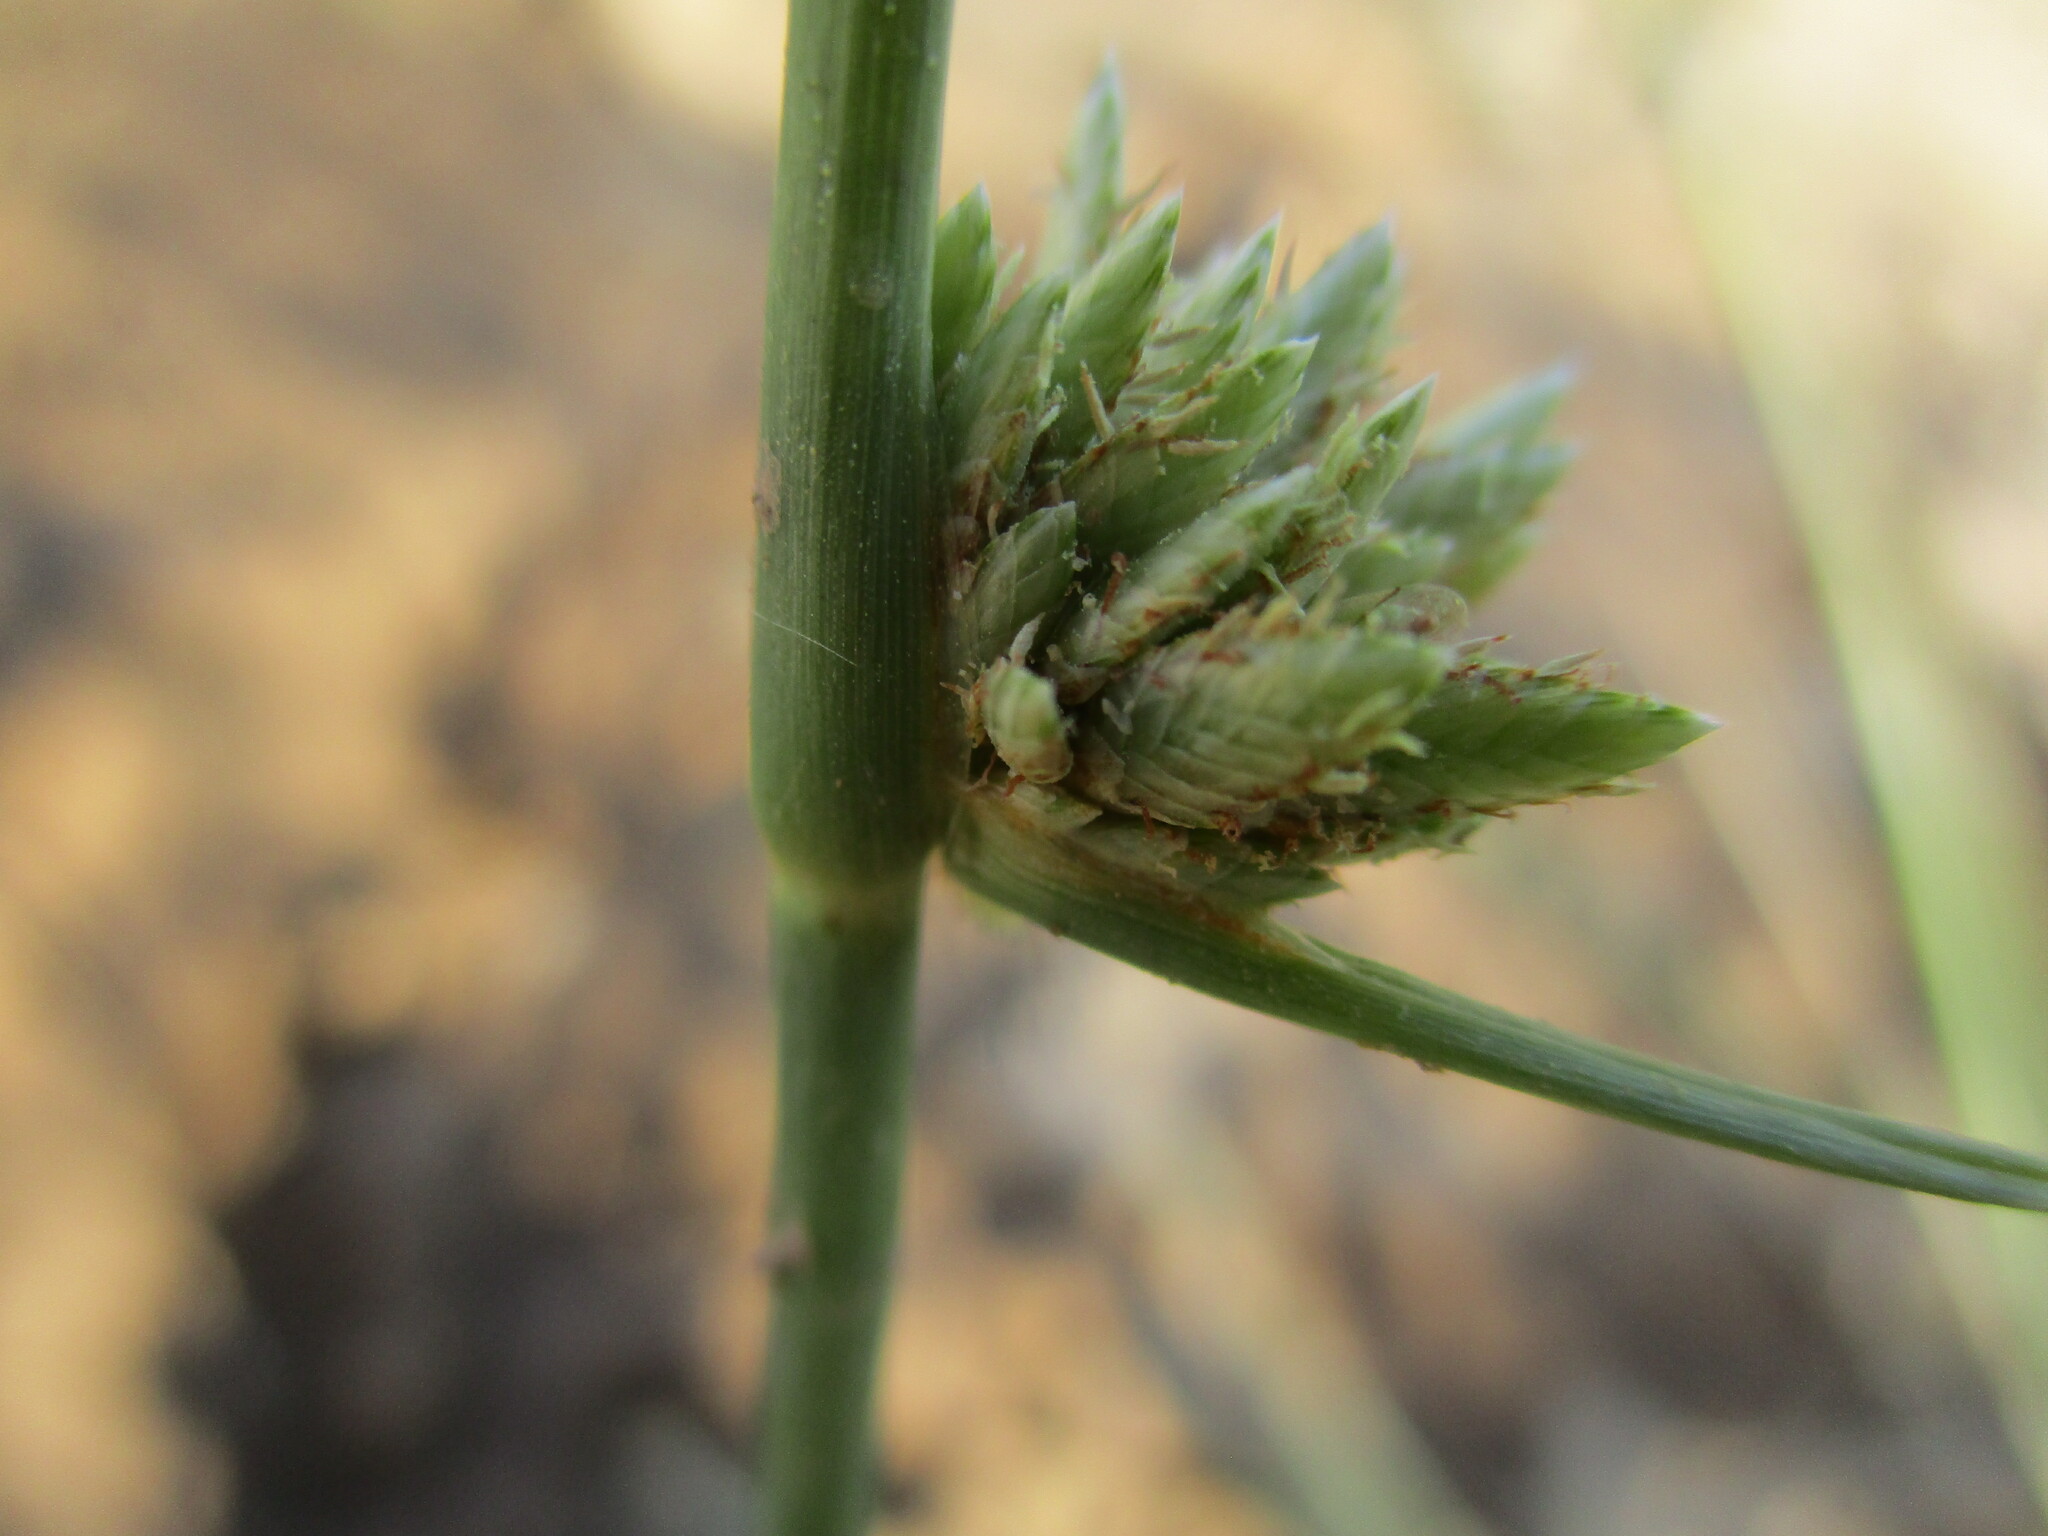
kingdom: Plantae
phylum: Tracheophyta
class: Liliopsida
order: Poales
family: Cyperaceae
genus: Cyperus
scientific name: Cyperus laevigatus
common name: Smooth flat sedge
